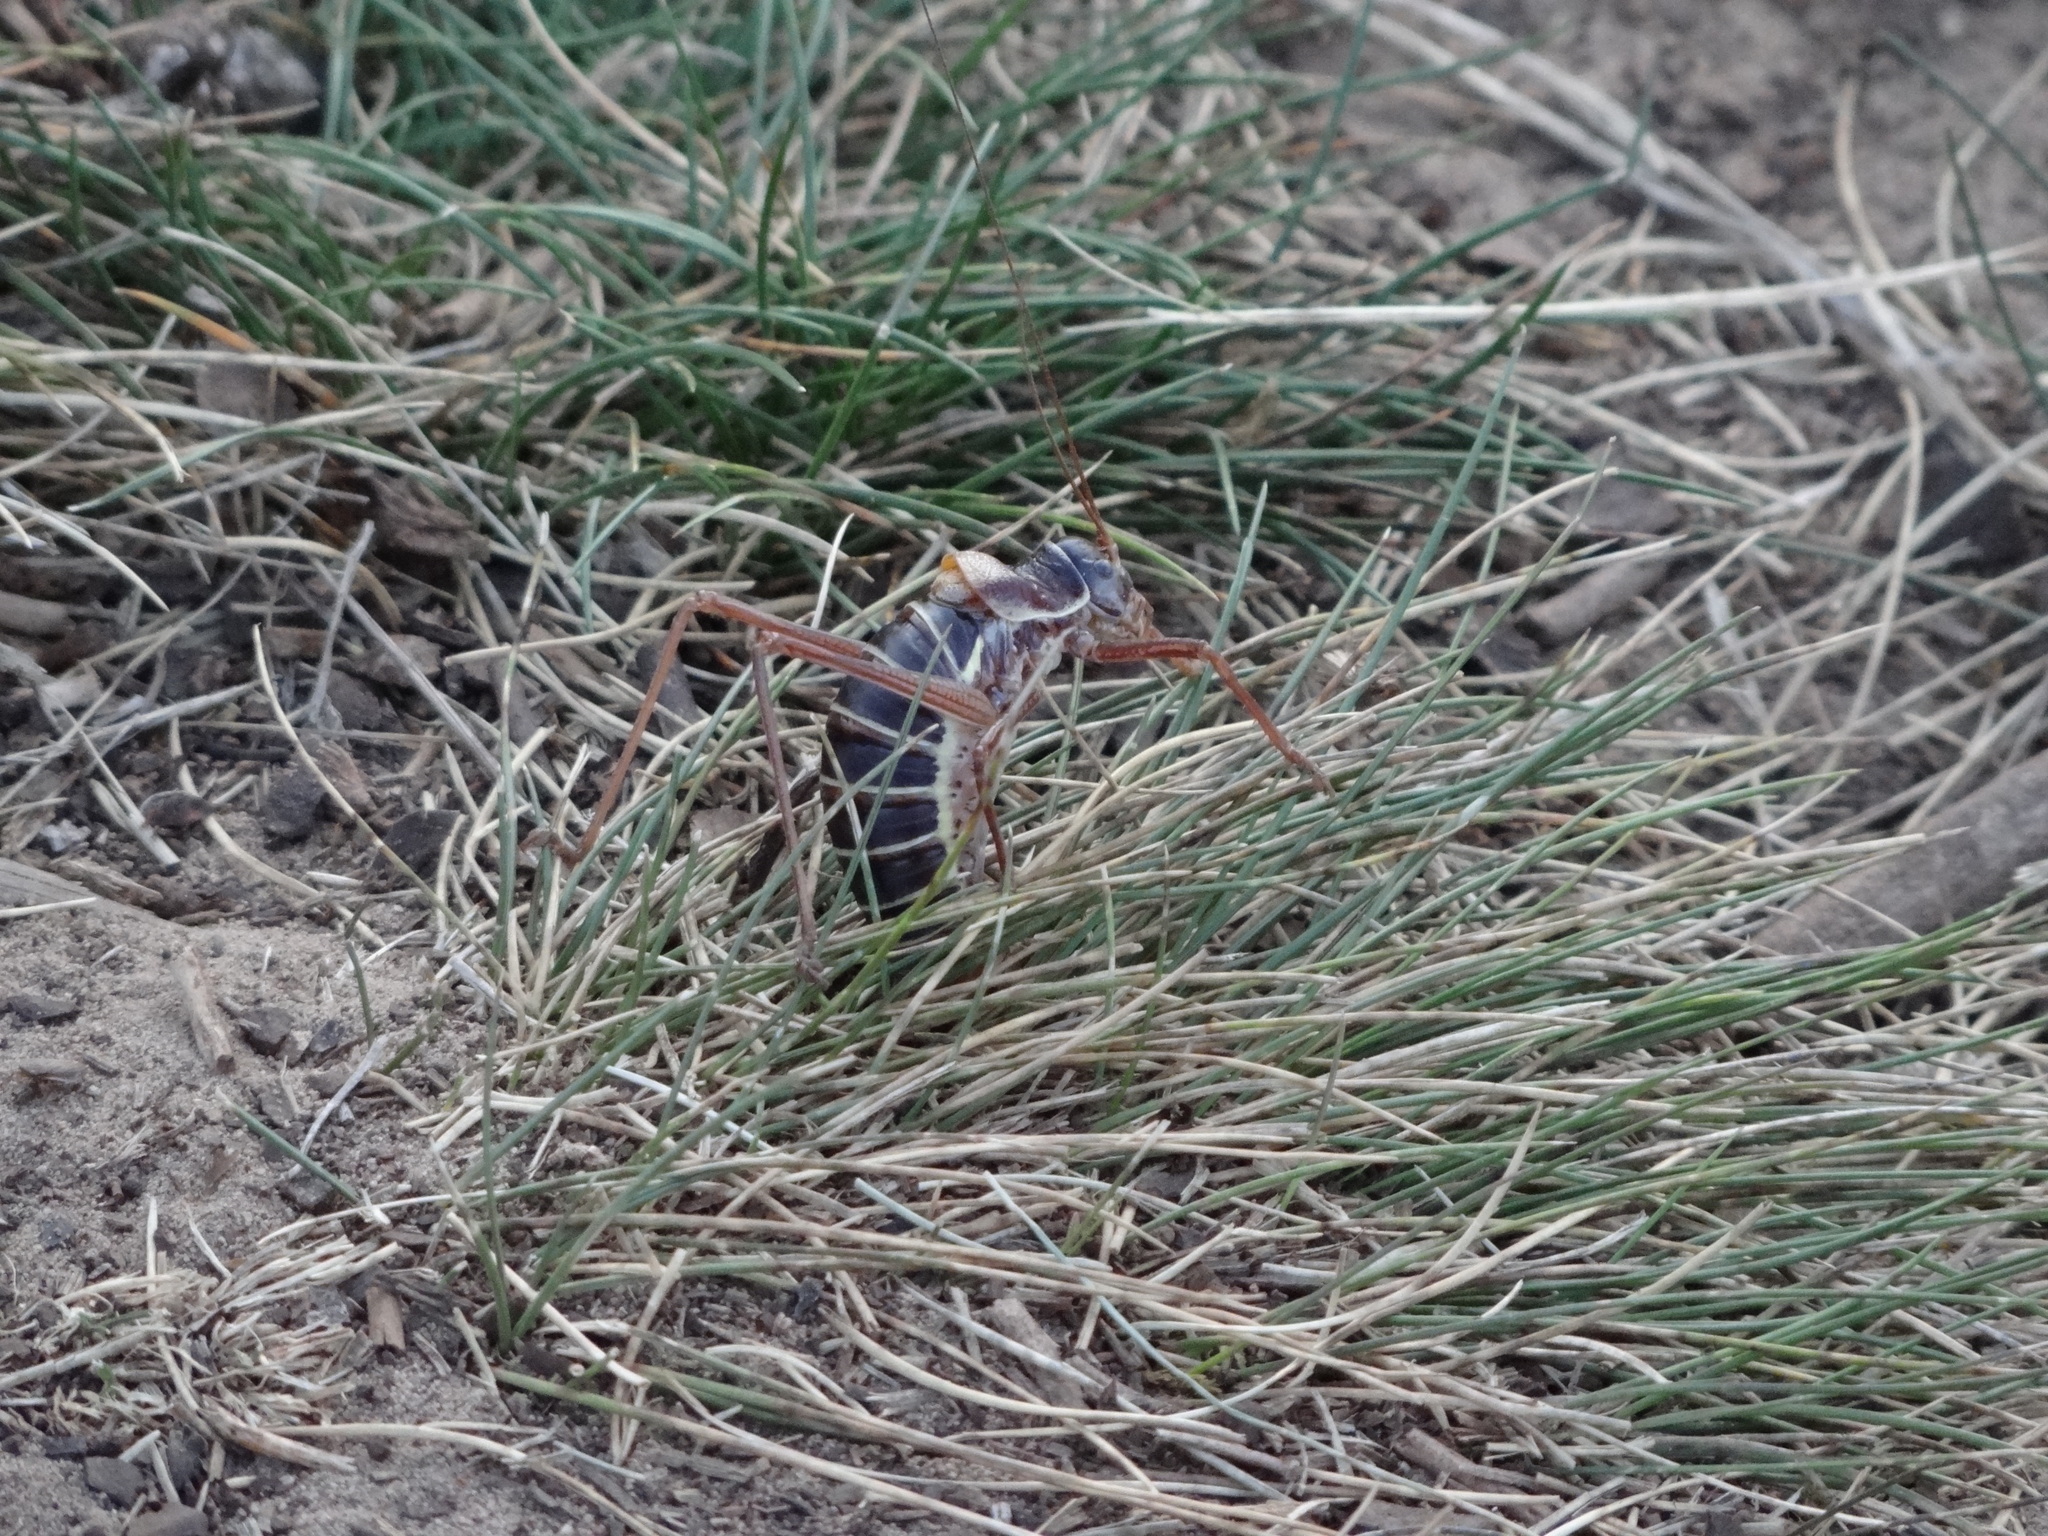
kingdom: Animalia
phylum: Arthropoda
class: Insecta
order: Orthoptera
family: Tettigoniidae
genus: Ephippiger
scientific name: Ephippiger diurnus
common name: Western saddle bush-cricket
